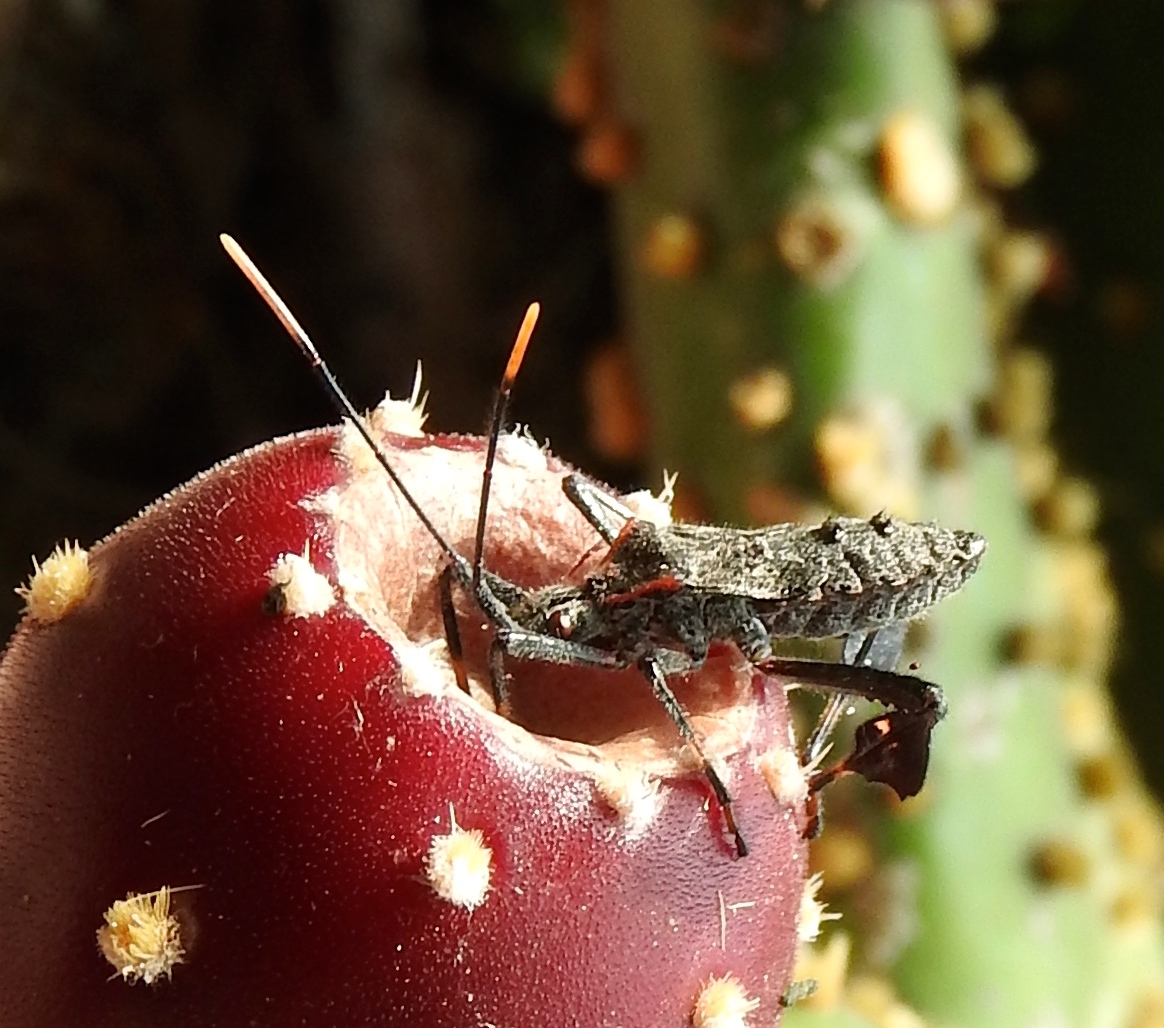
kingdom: Animalia
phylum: Arthropoda
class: Insecta
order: Hemiptera
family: Coreidae
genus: Narnia
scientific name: Narnia
